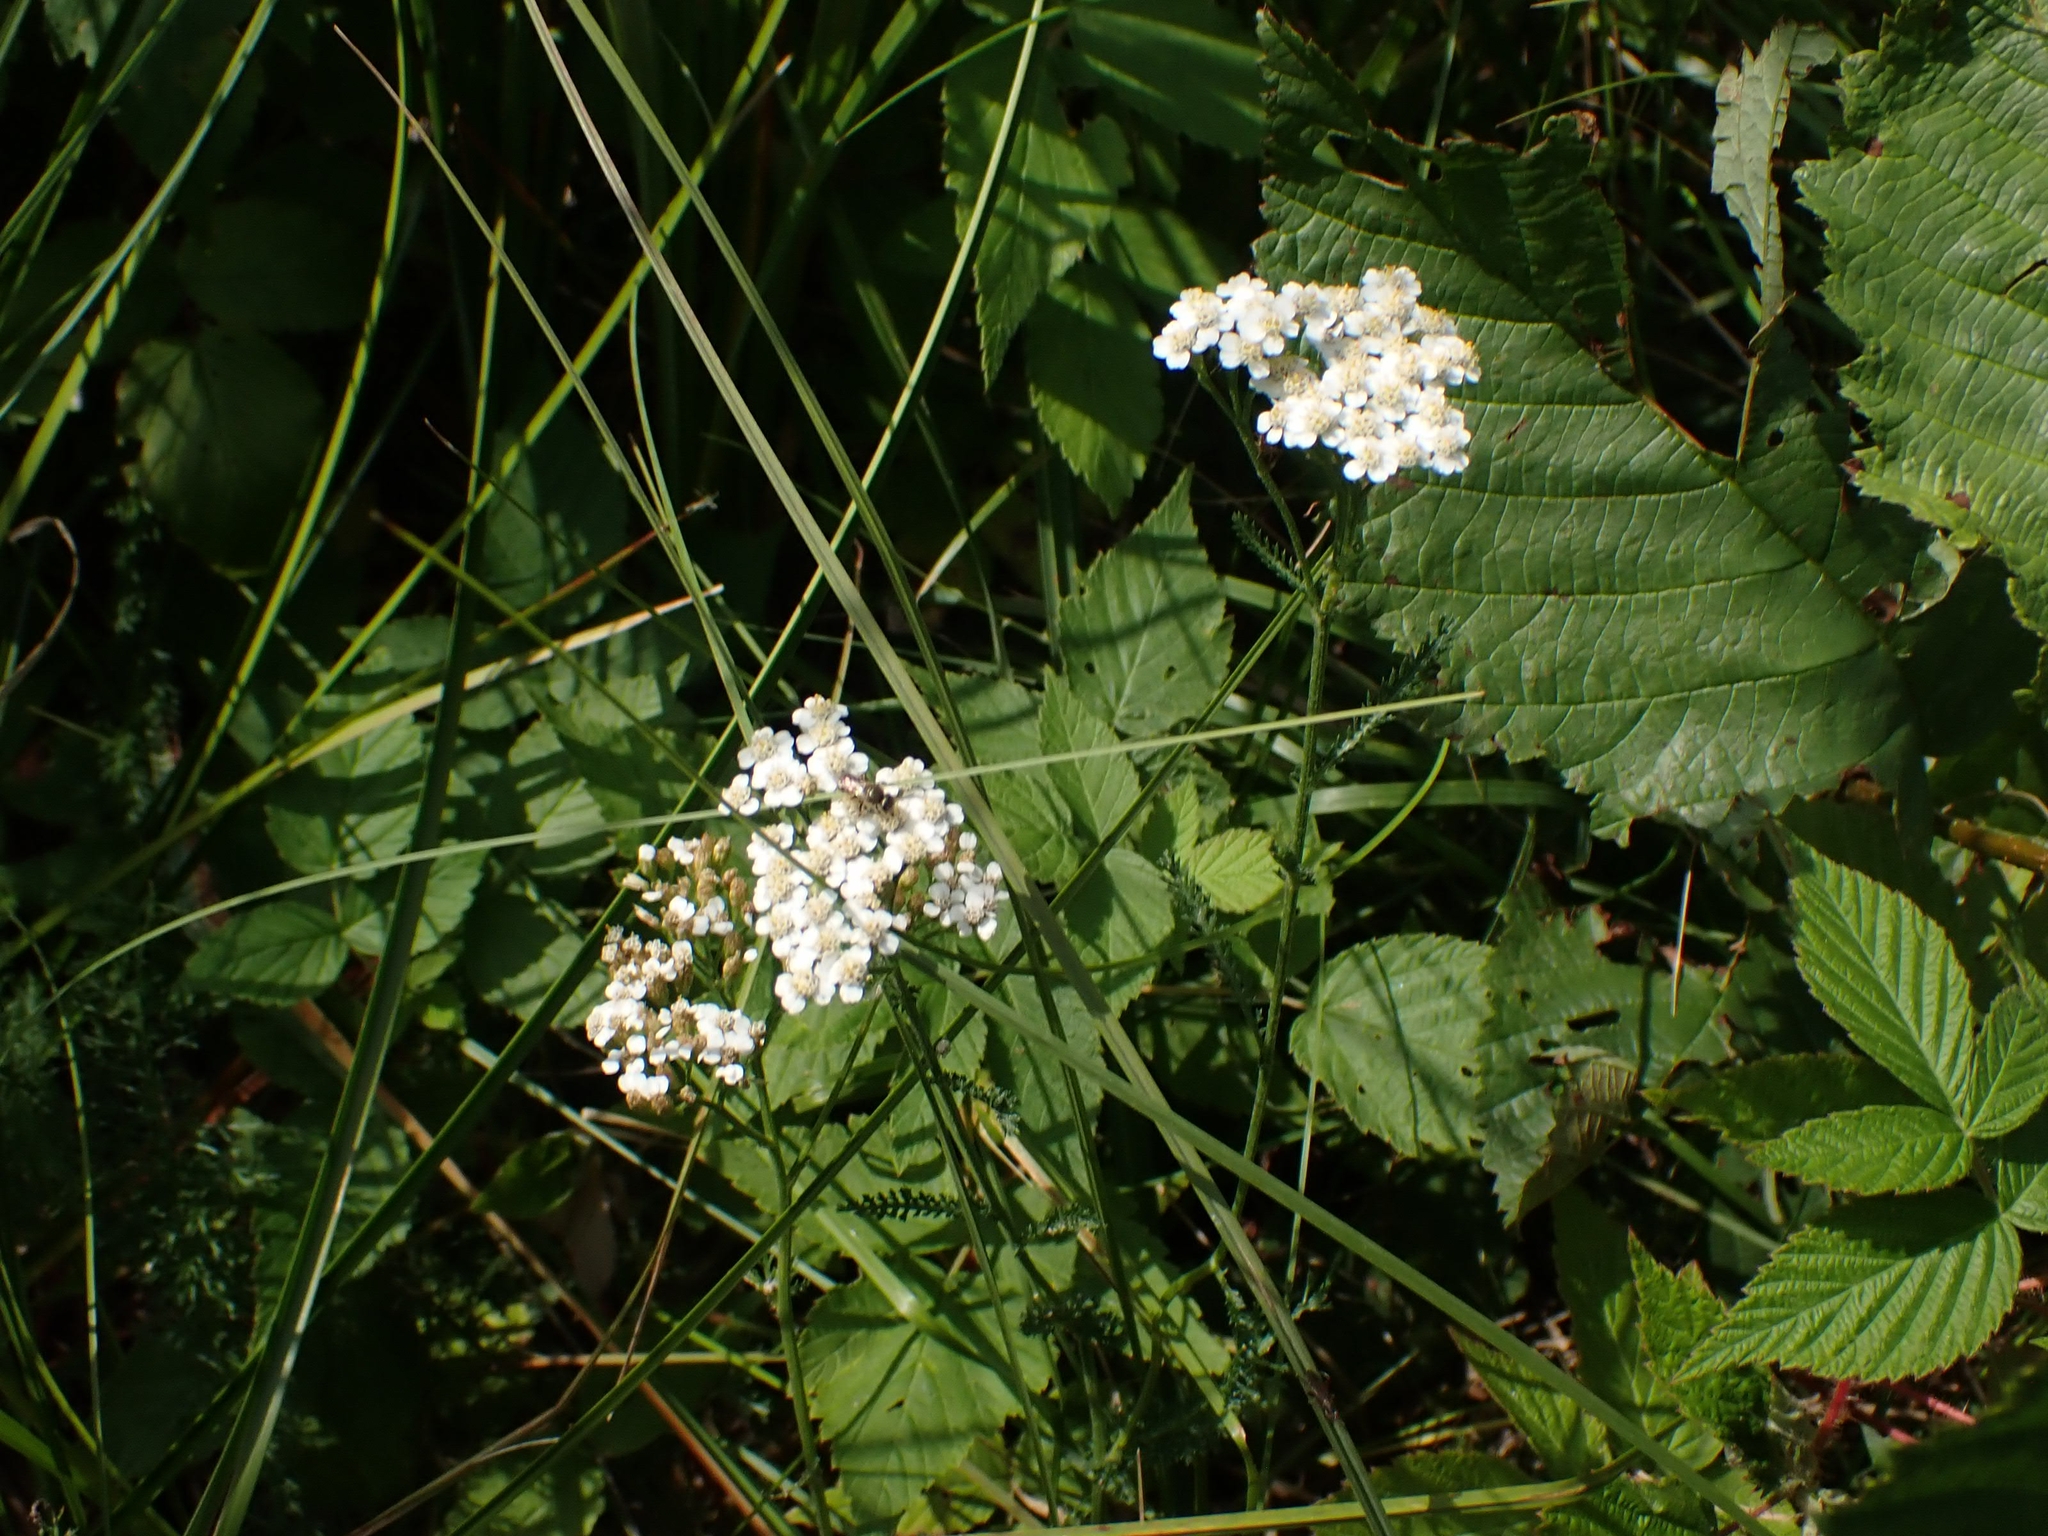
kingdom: Plantae
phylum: Tracheophyta
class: Magnoliopsida
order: Asterales
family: Asteraceae
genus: Achillea
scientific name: Achillea alpina
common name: Siberian yarrow
